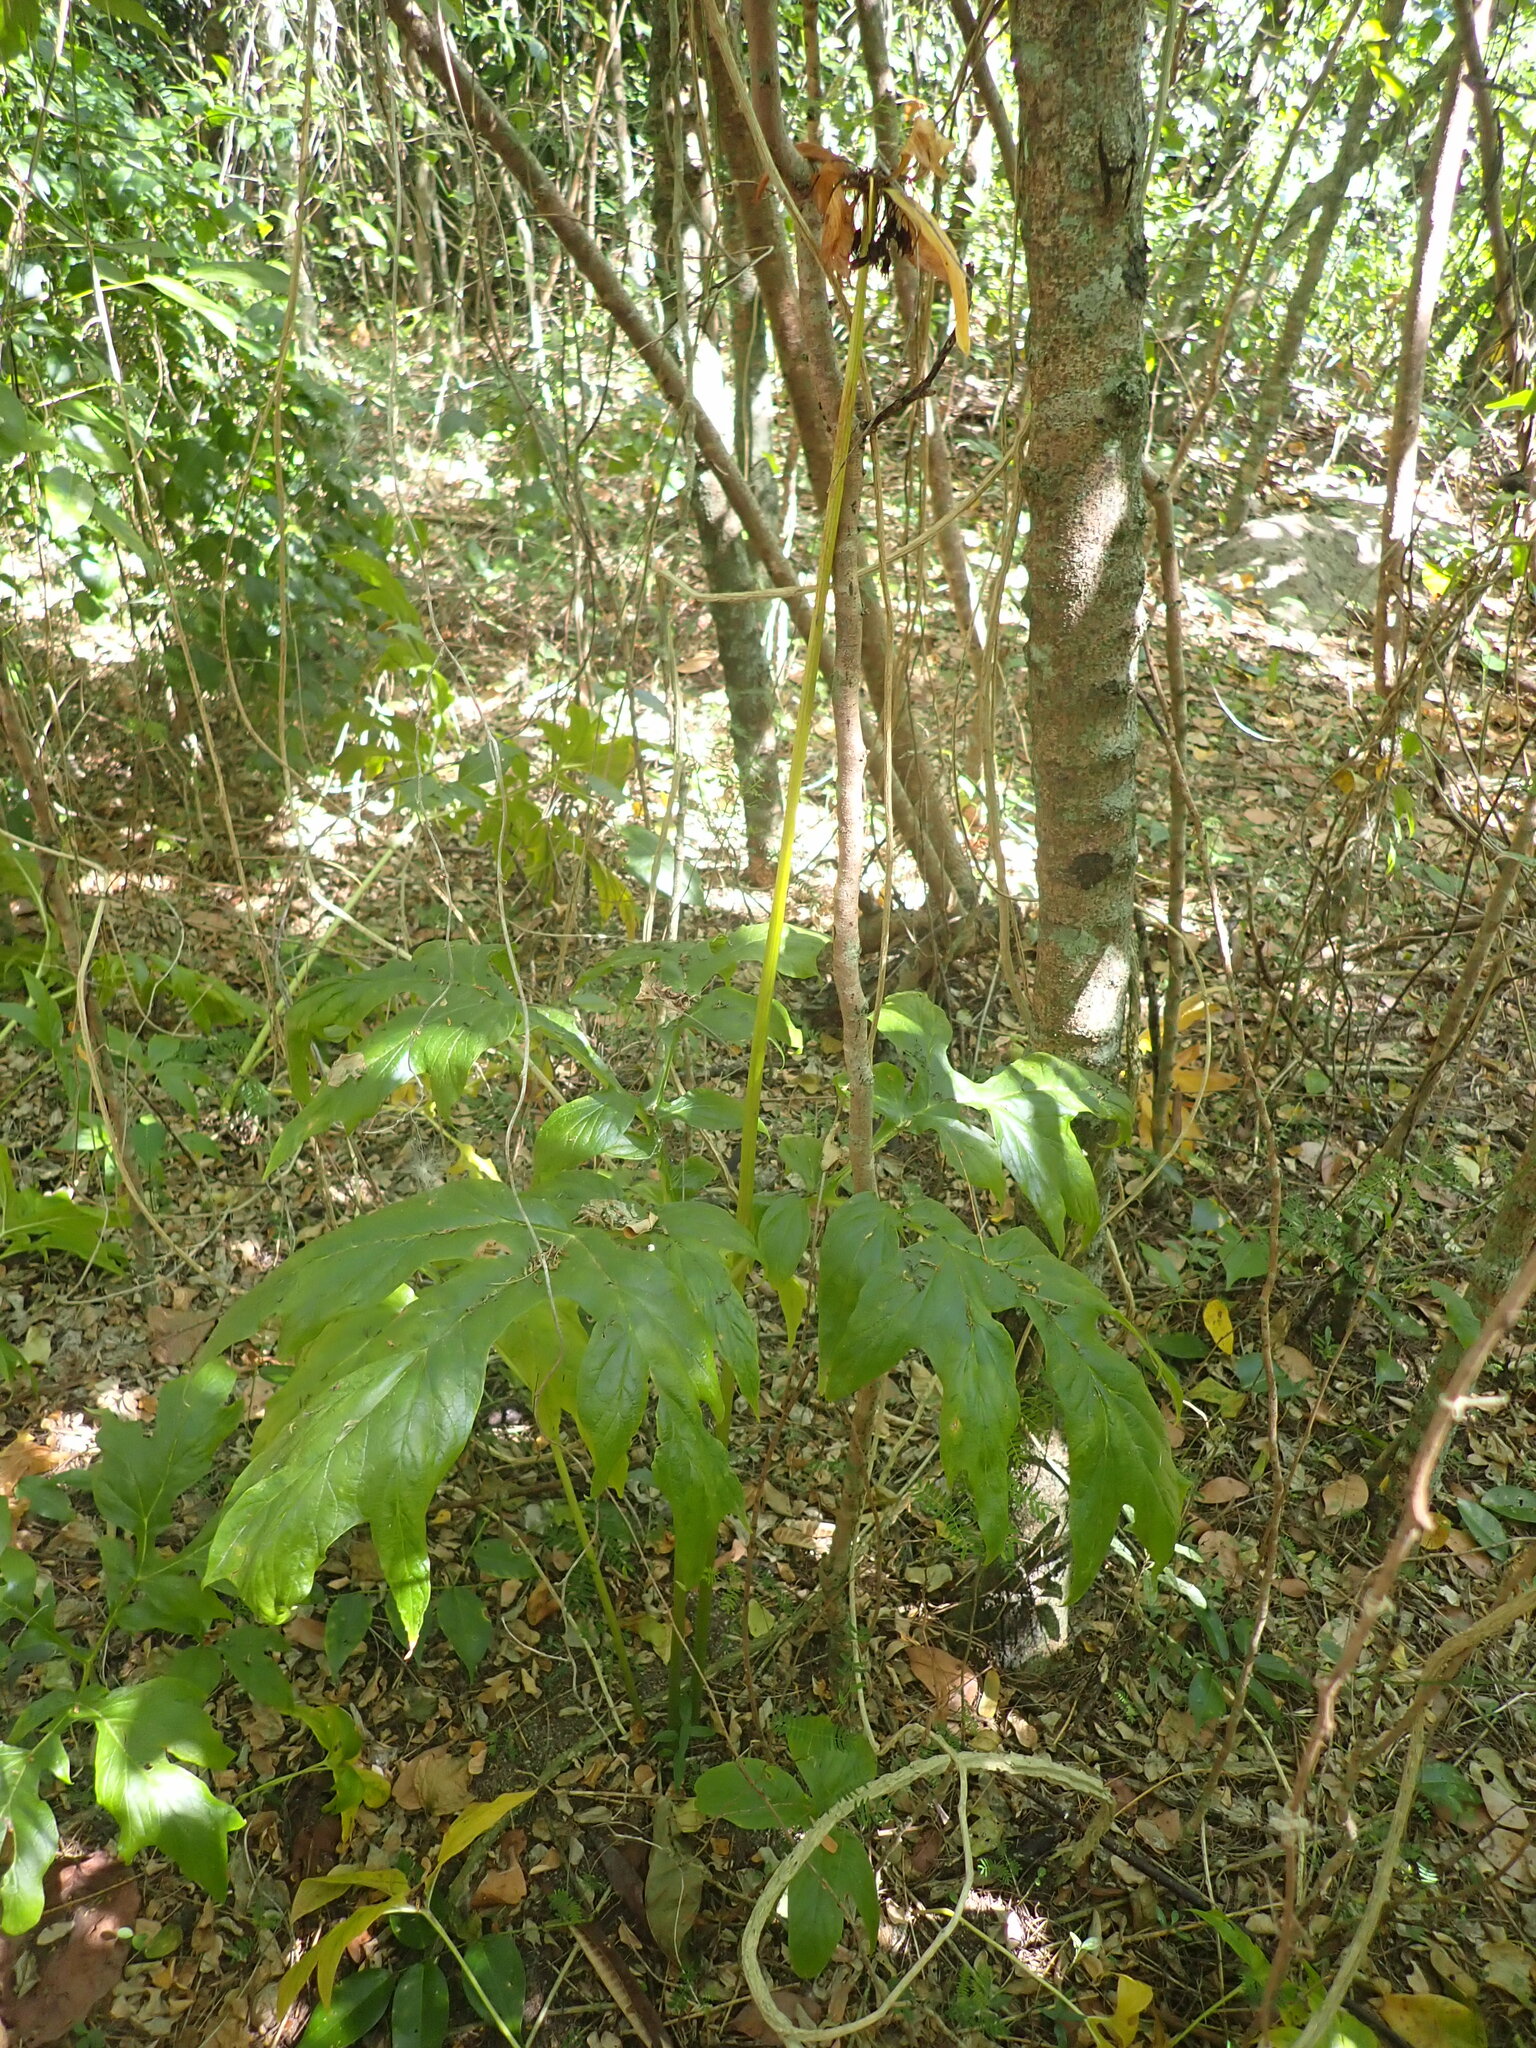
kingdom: Plantae
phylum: Tracheophyta
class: Liliopsida
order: Dioscoreales
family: Dioscoreaceae
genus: Tacca
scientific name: Tacca leontopetaloides
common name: Arrowroot
